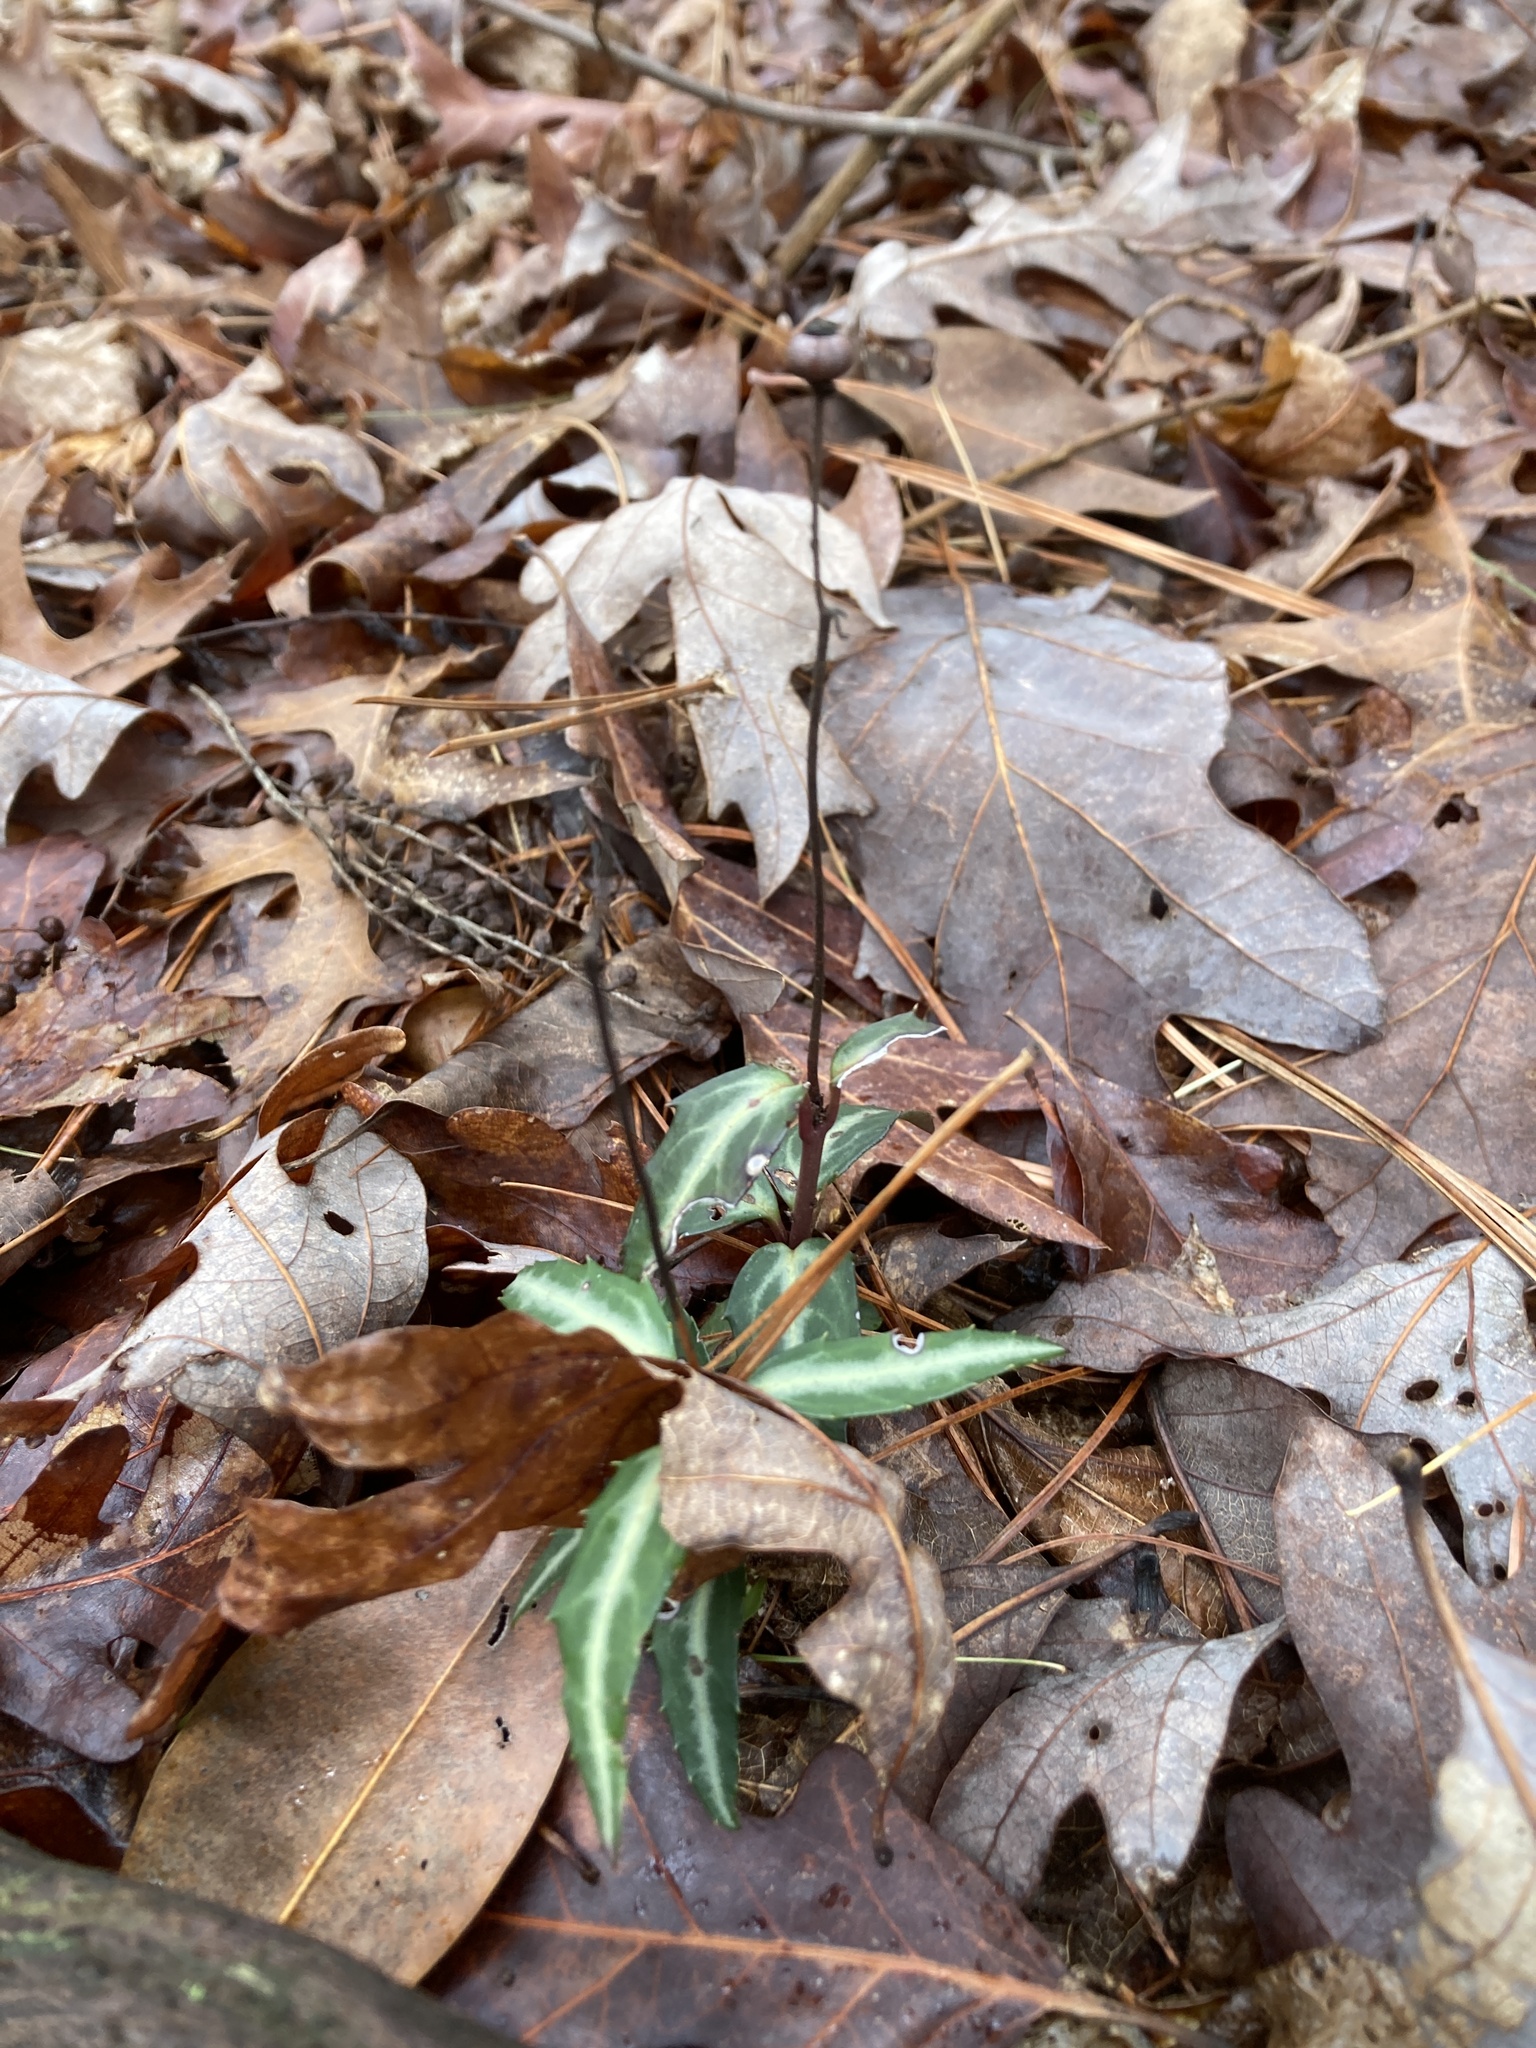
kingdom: Plantae
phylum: Tracheophyta
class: Magnoliopsida
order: Ericales
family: Ericaceae
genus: Chimaphila
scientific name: Chimaphila maculata
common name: Spotted pipsissewa
